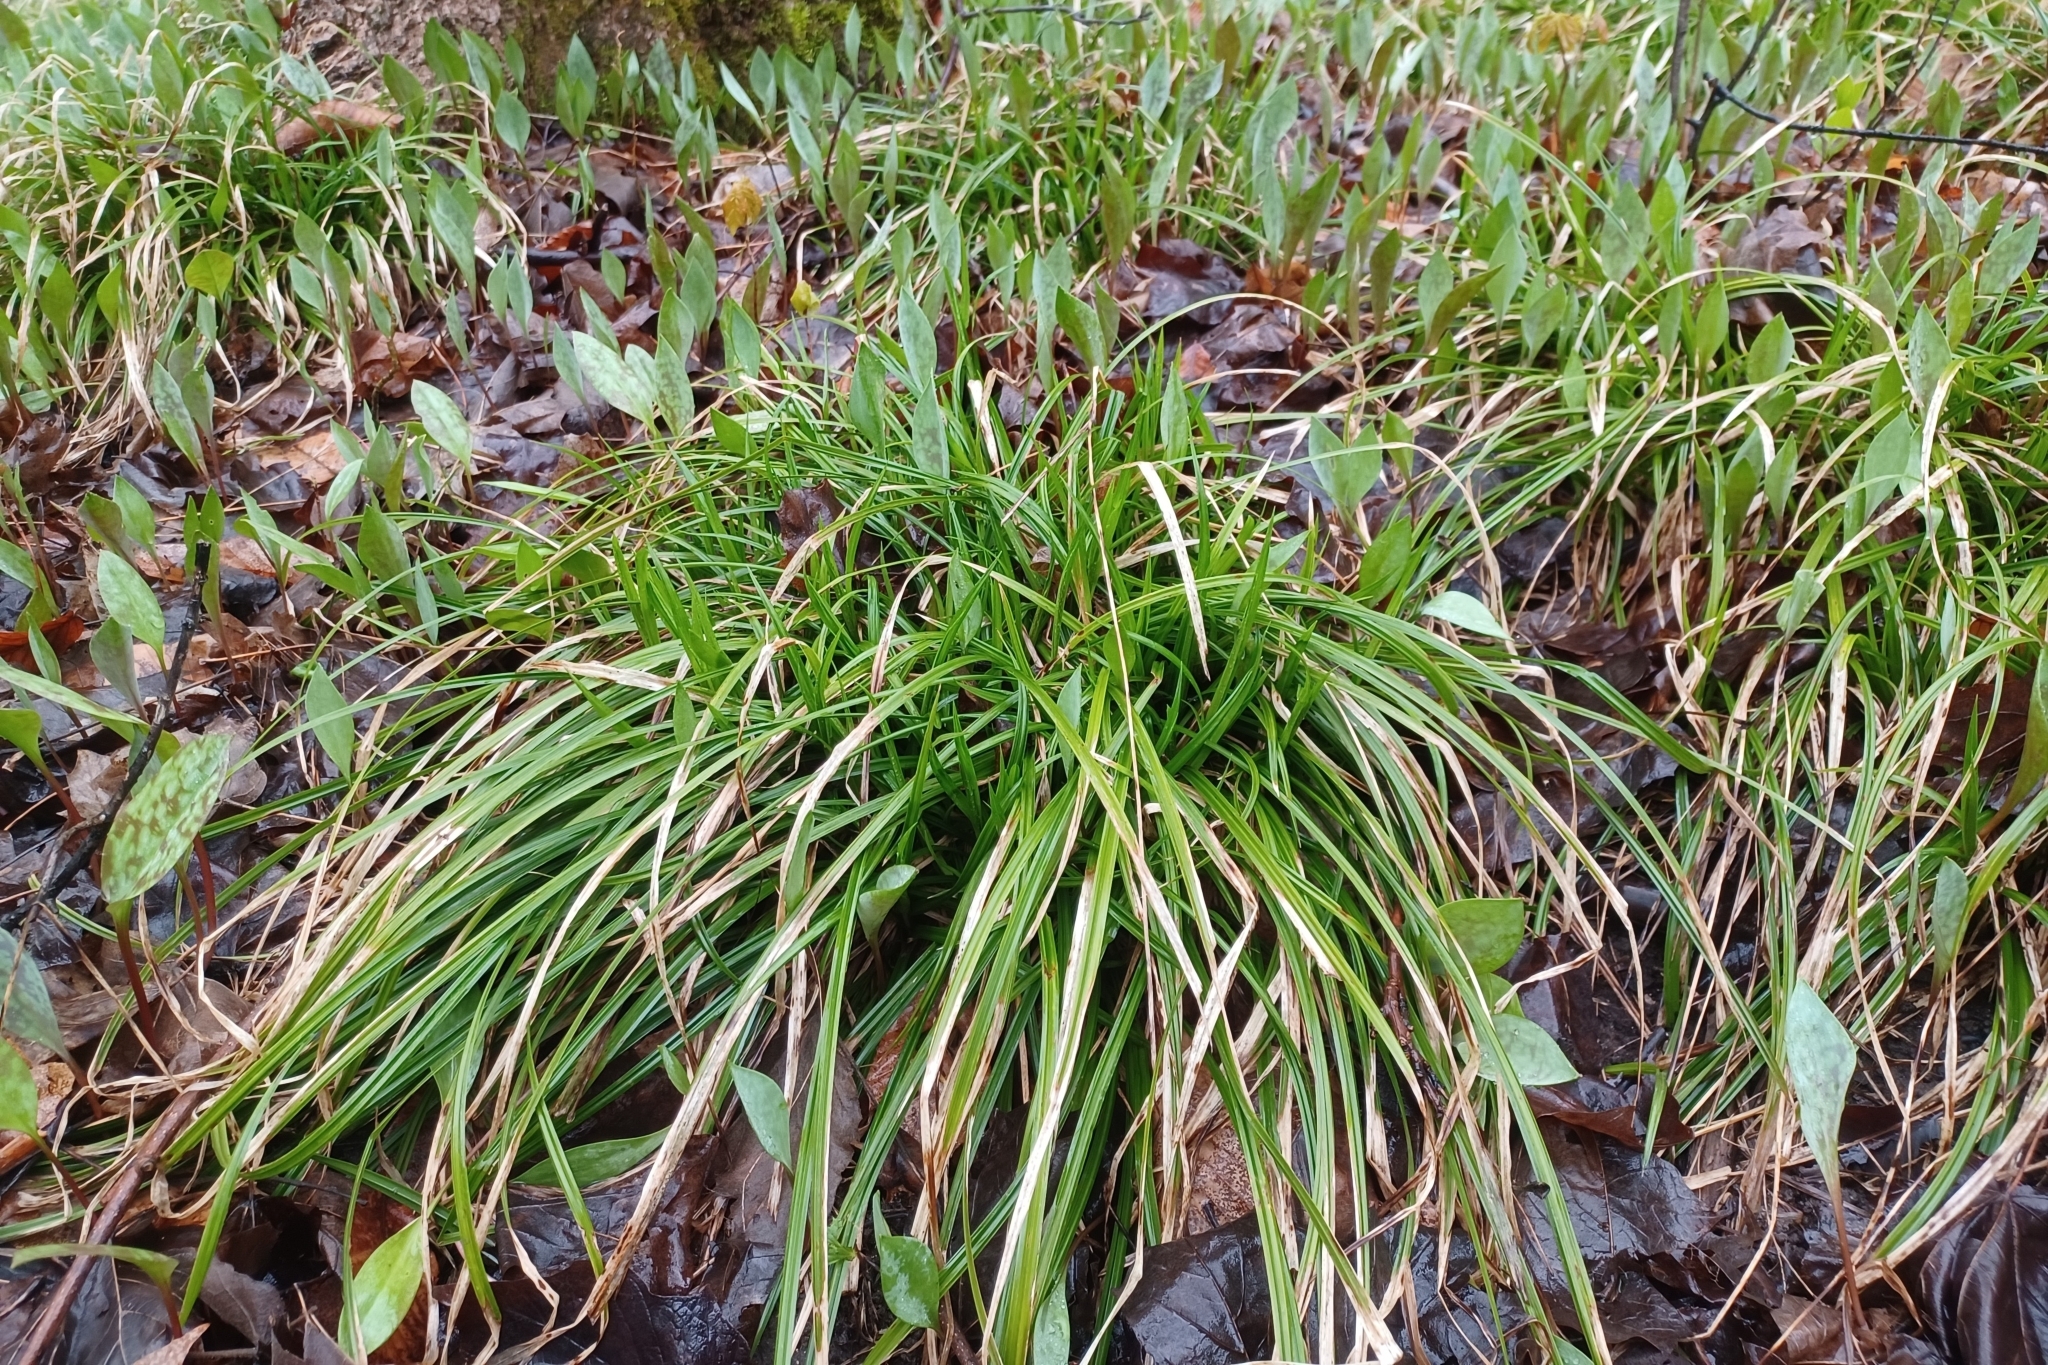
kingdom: Plantae
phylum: Tracheophyta
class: Liliopsida
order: Poales
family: Cyperaceae
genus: Carex
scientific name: Carex sylvatica
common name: Wood-sedge
